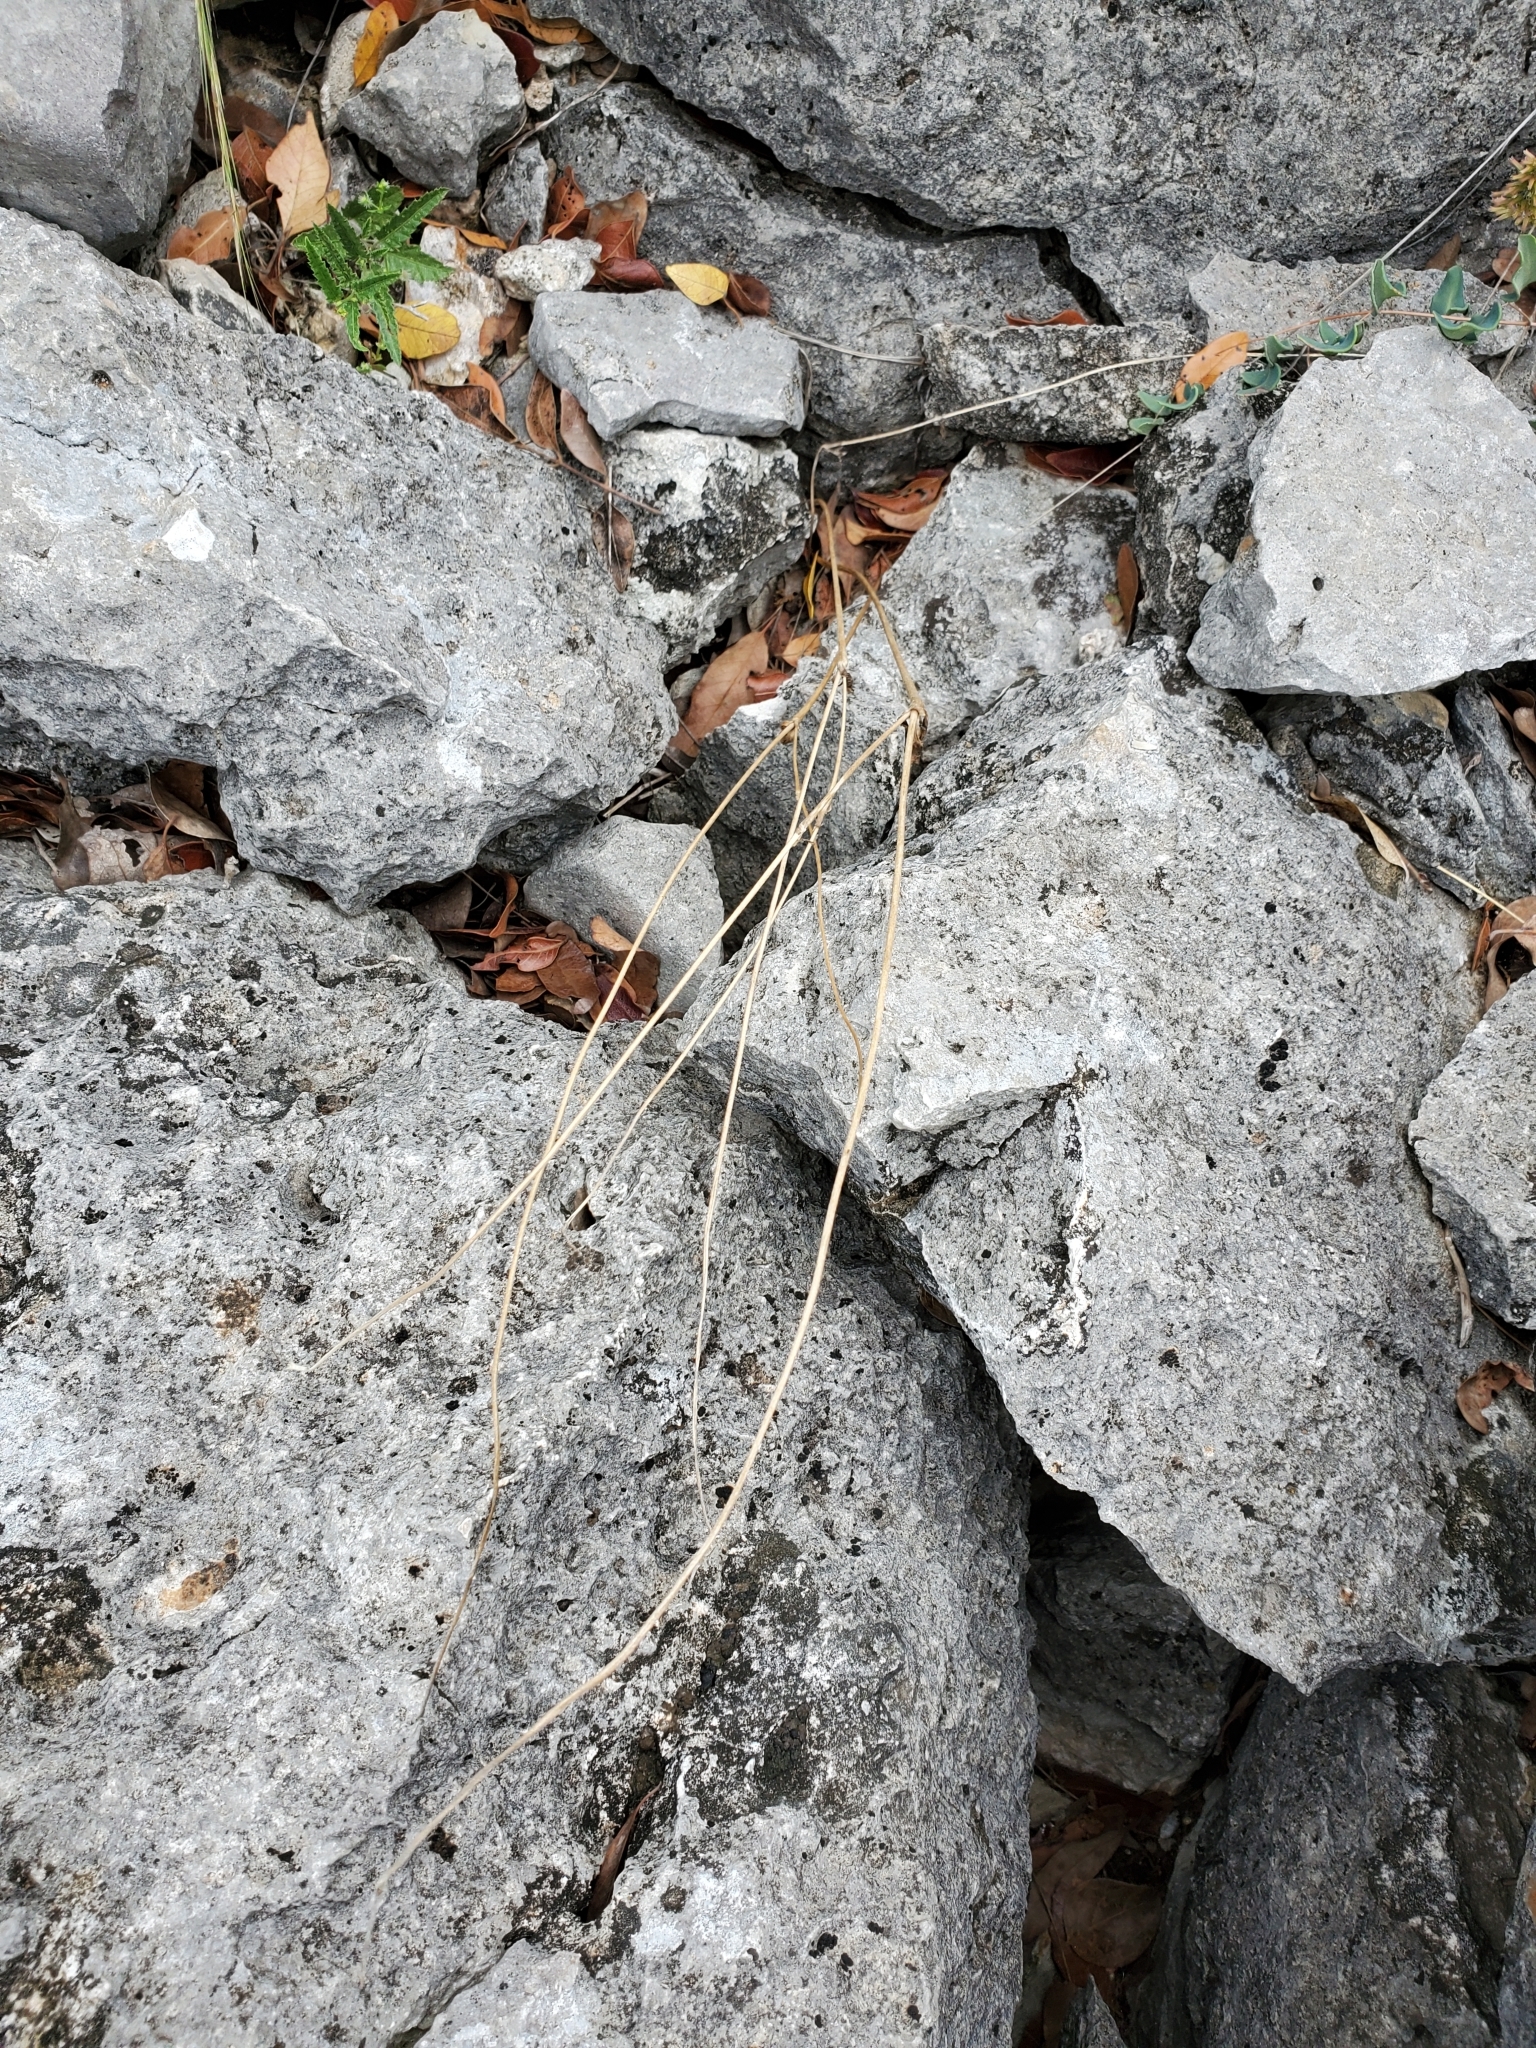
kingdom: Plantae
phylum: Tracheophyta
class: Magnoliopsida
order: Ranunculales
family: Ranunculaceae
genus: Anemone
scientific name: Anemone edwardsiana
